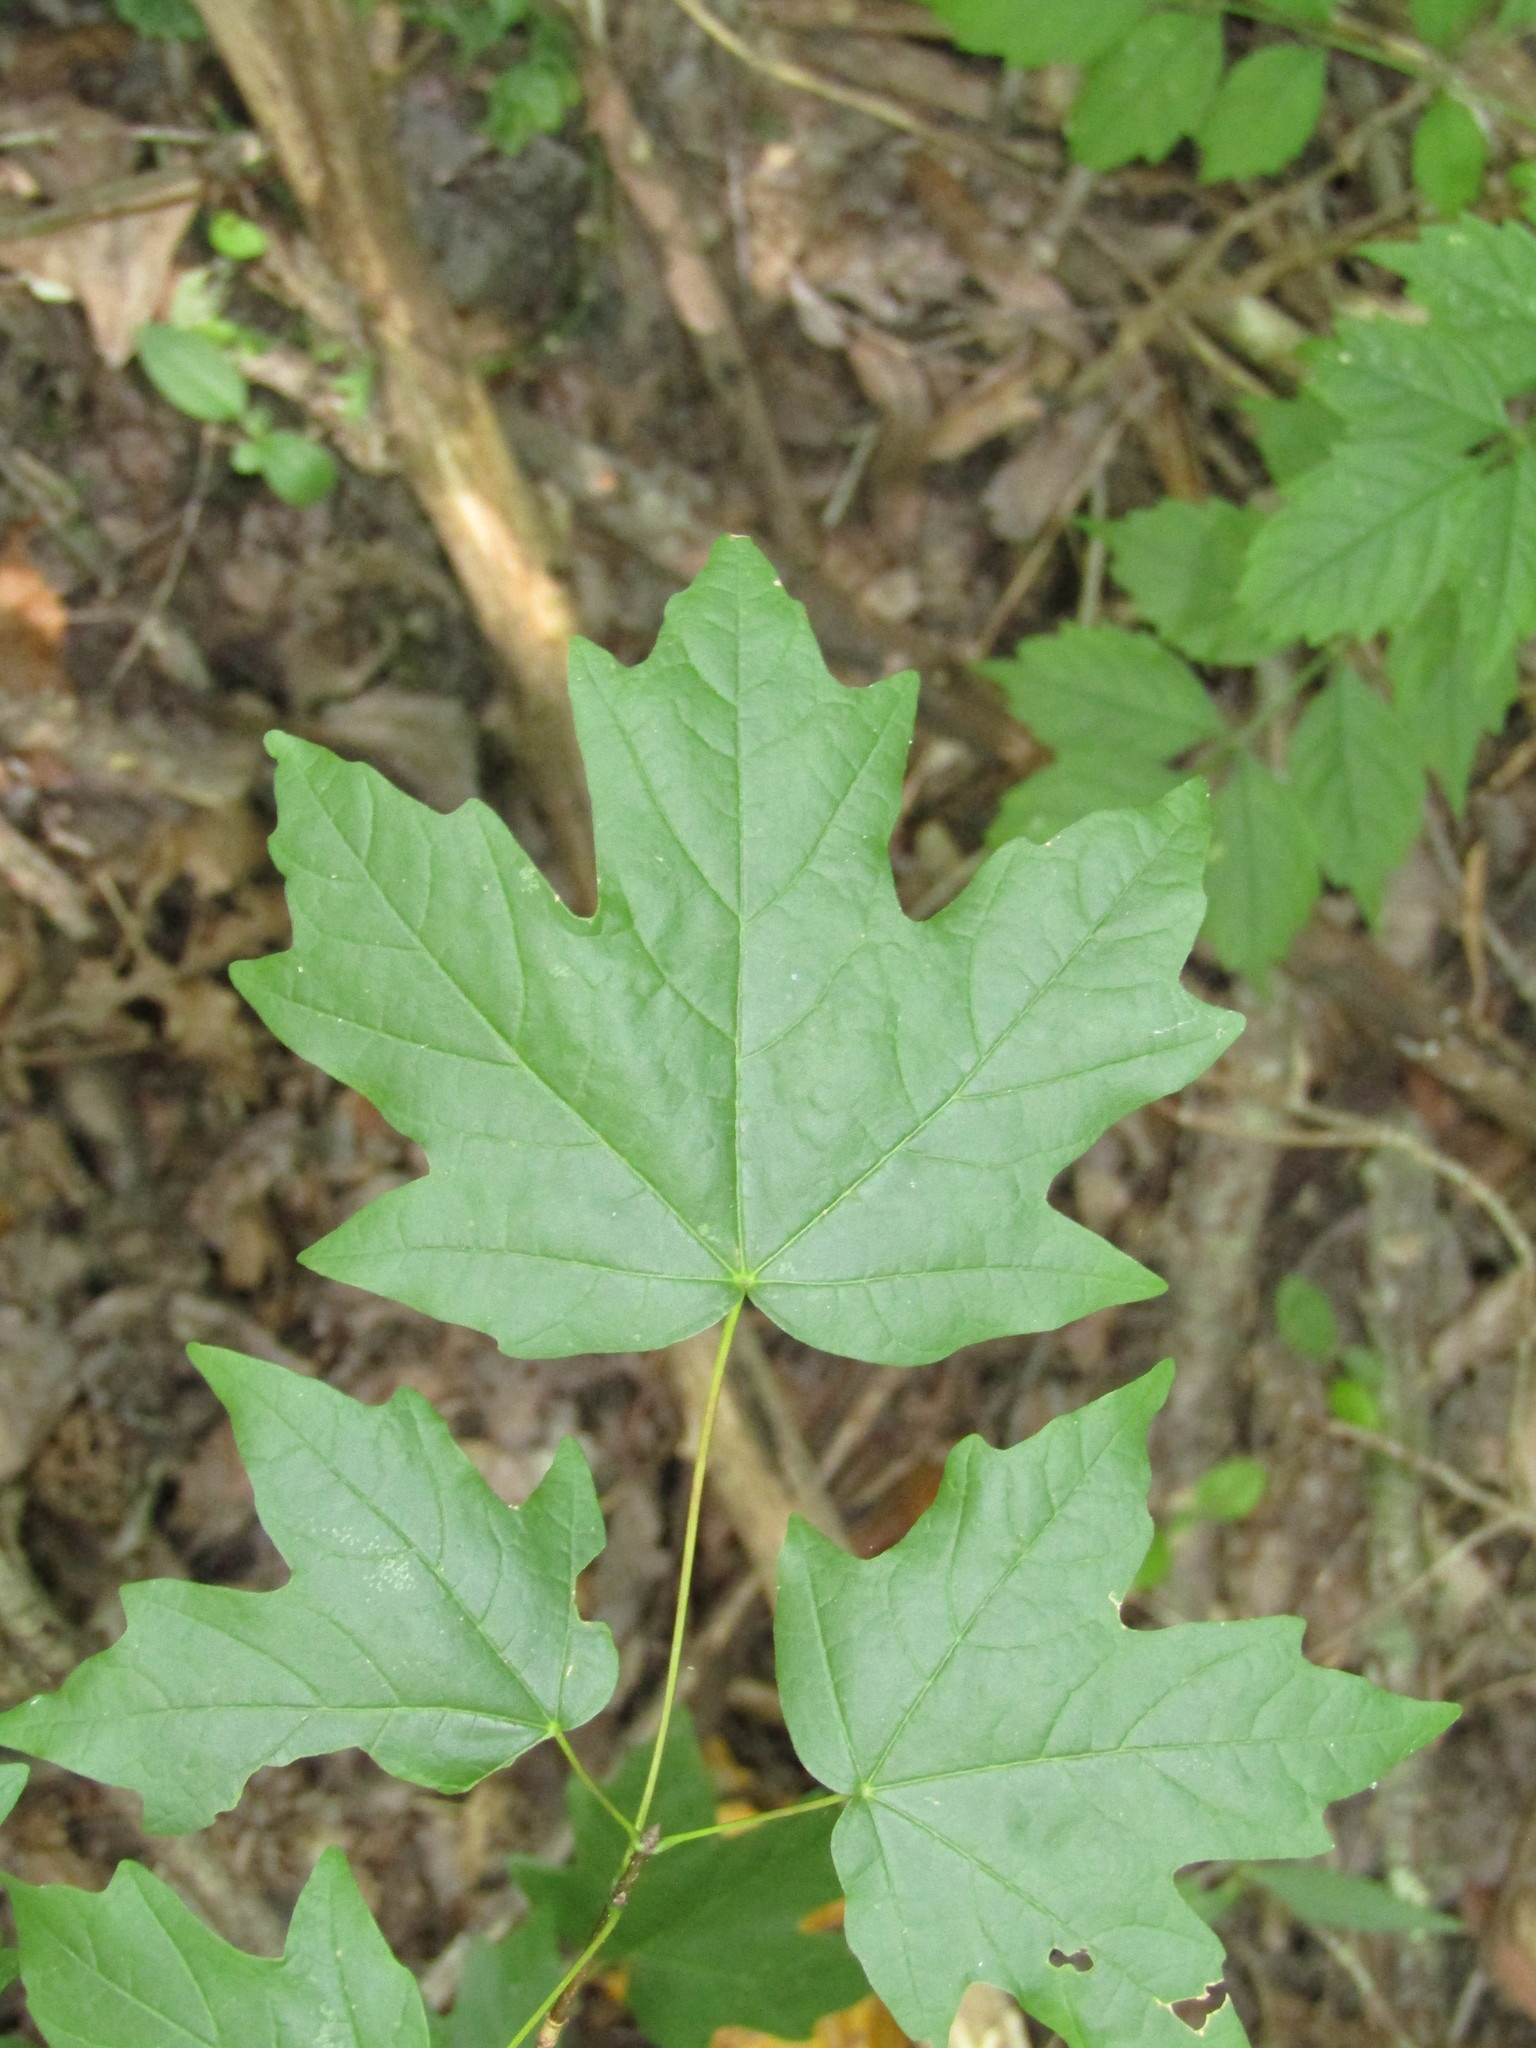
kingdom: Plantae
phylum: Tracheophyta
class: Magnoliopsida
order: Sapindales
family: Sapindaceae
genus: Acer
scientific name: Acer floridanum
